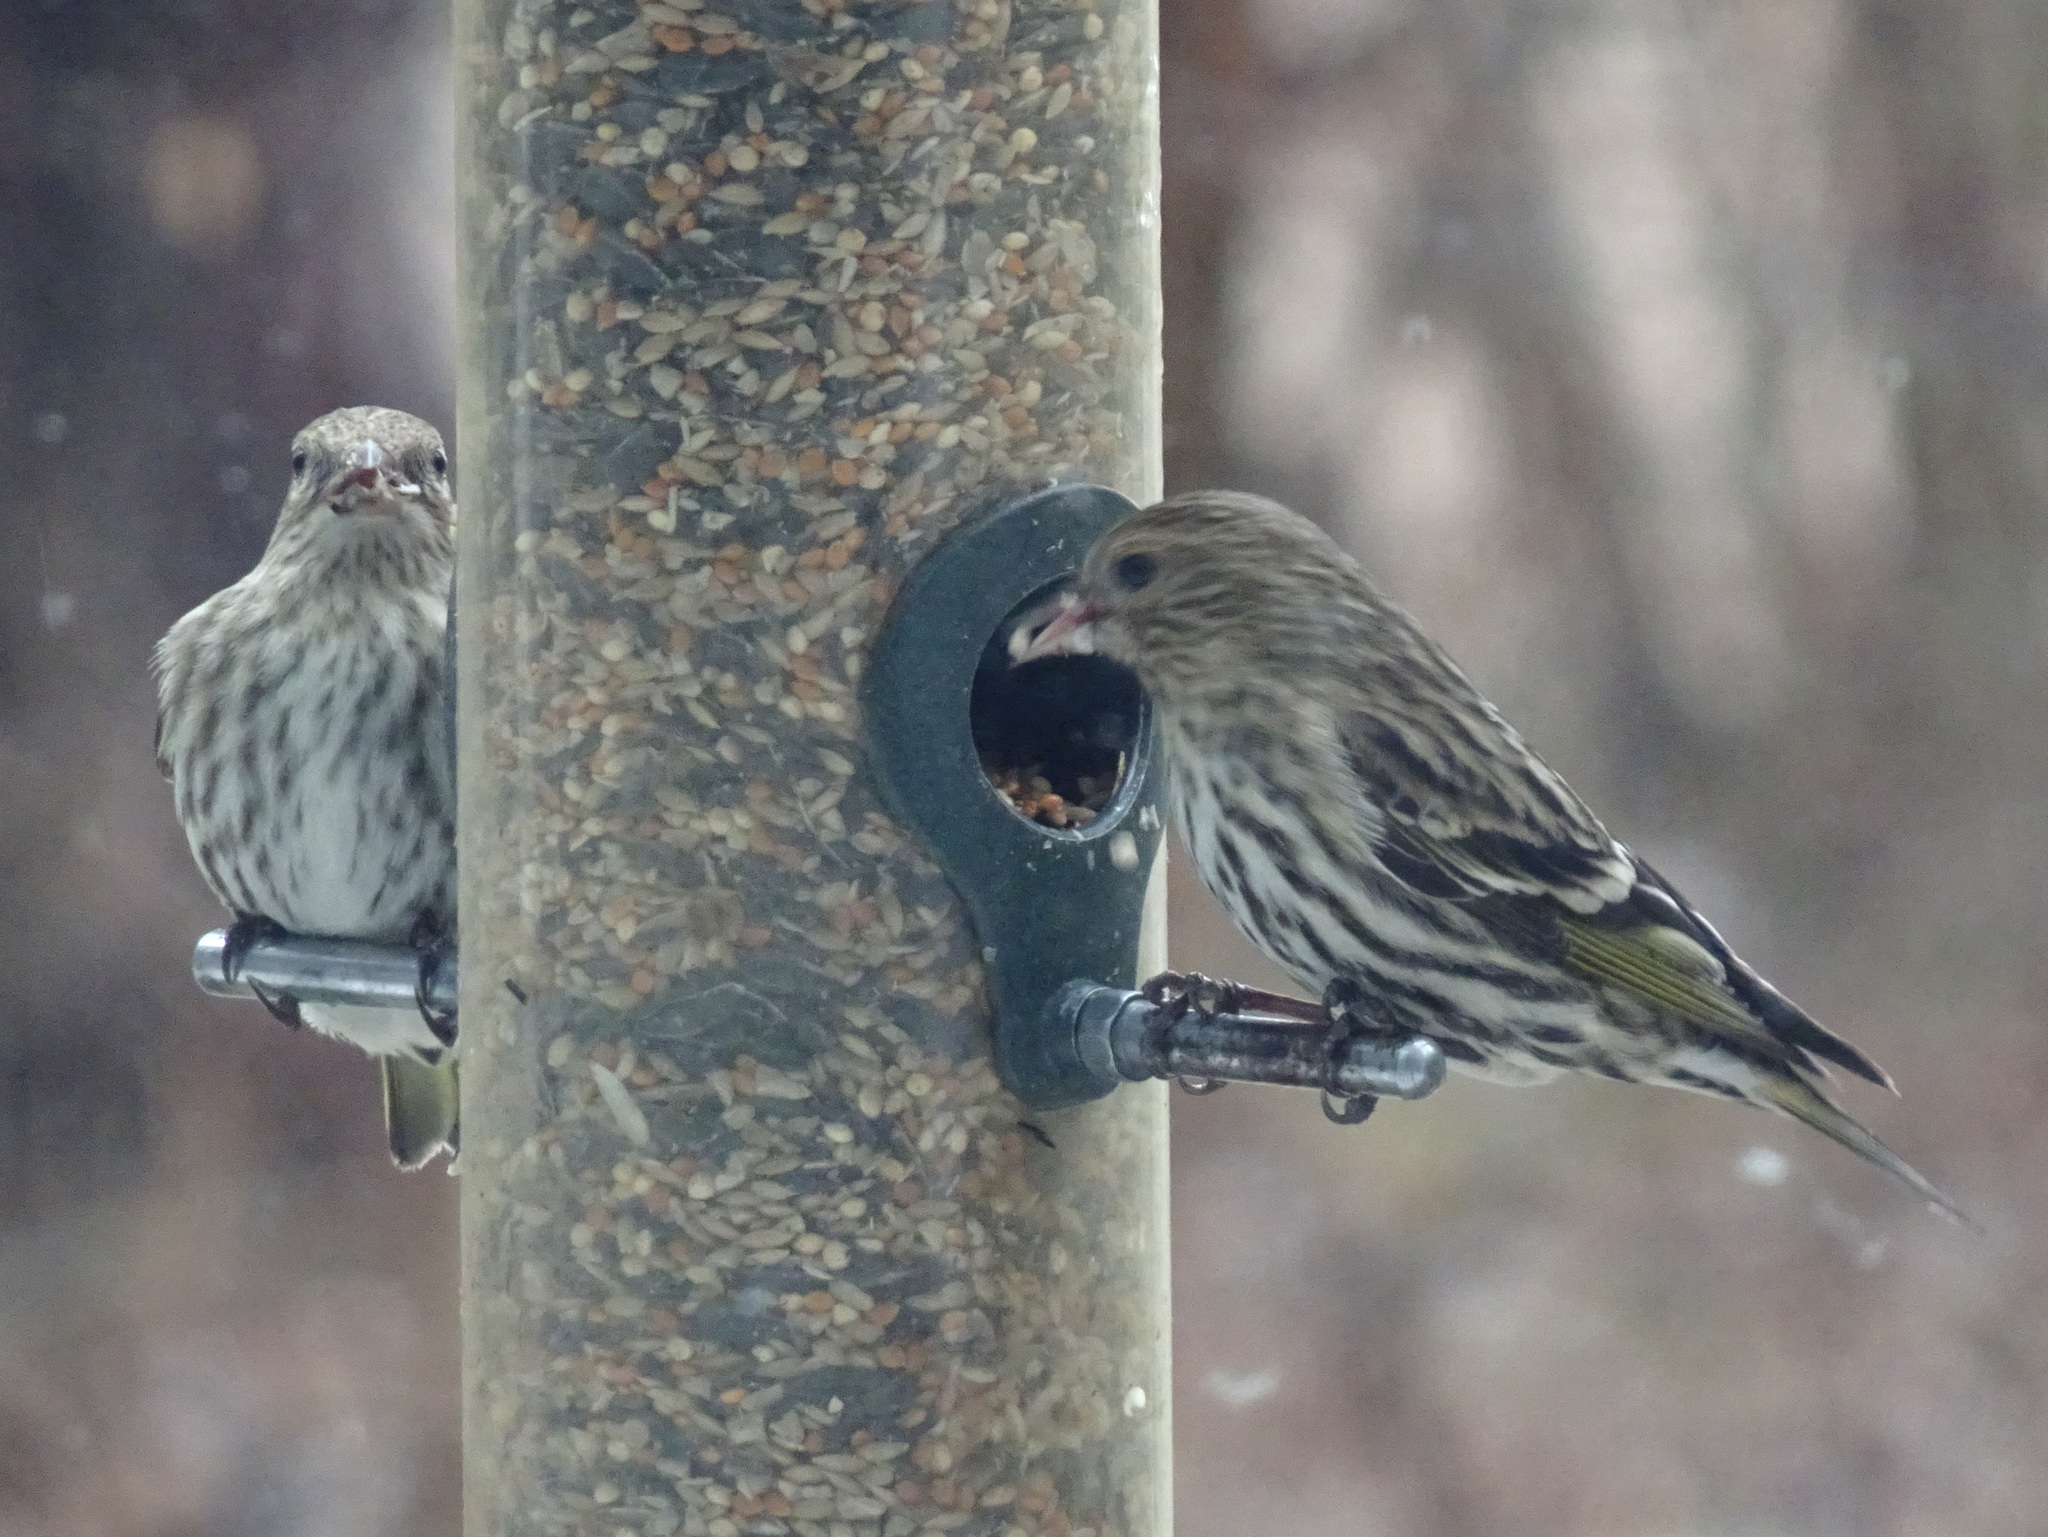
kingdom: Animalia
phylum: Chordata
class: Aves
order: Passeriformes
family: Fringillidae
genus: Spinus
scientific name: Spinus pinus
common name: Pine siskin
